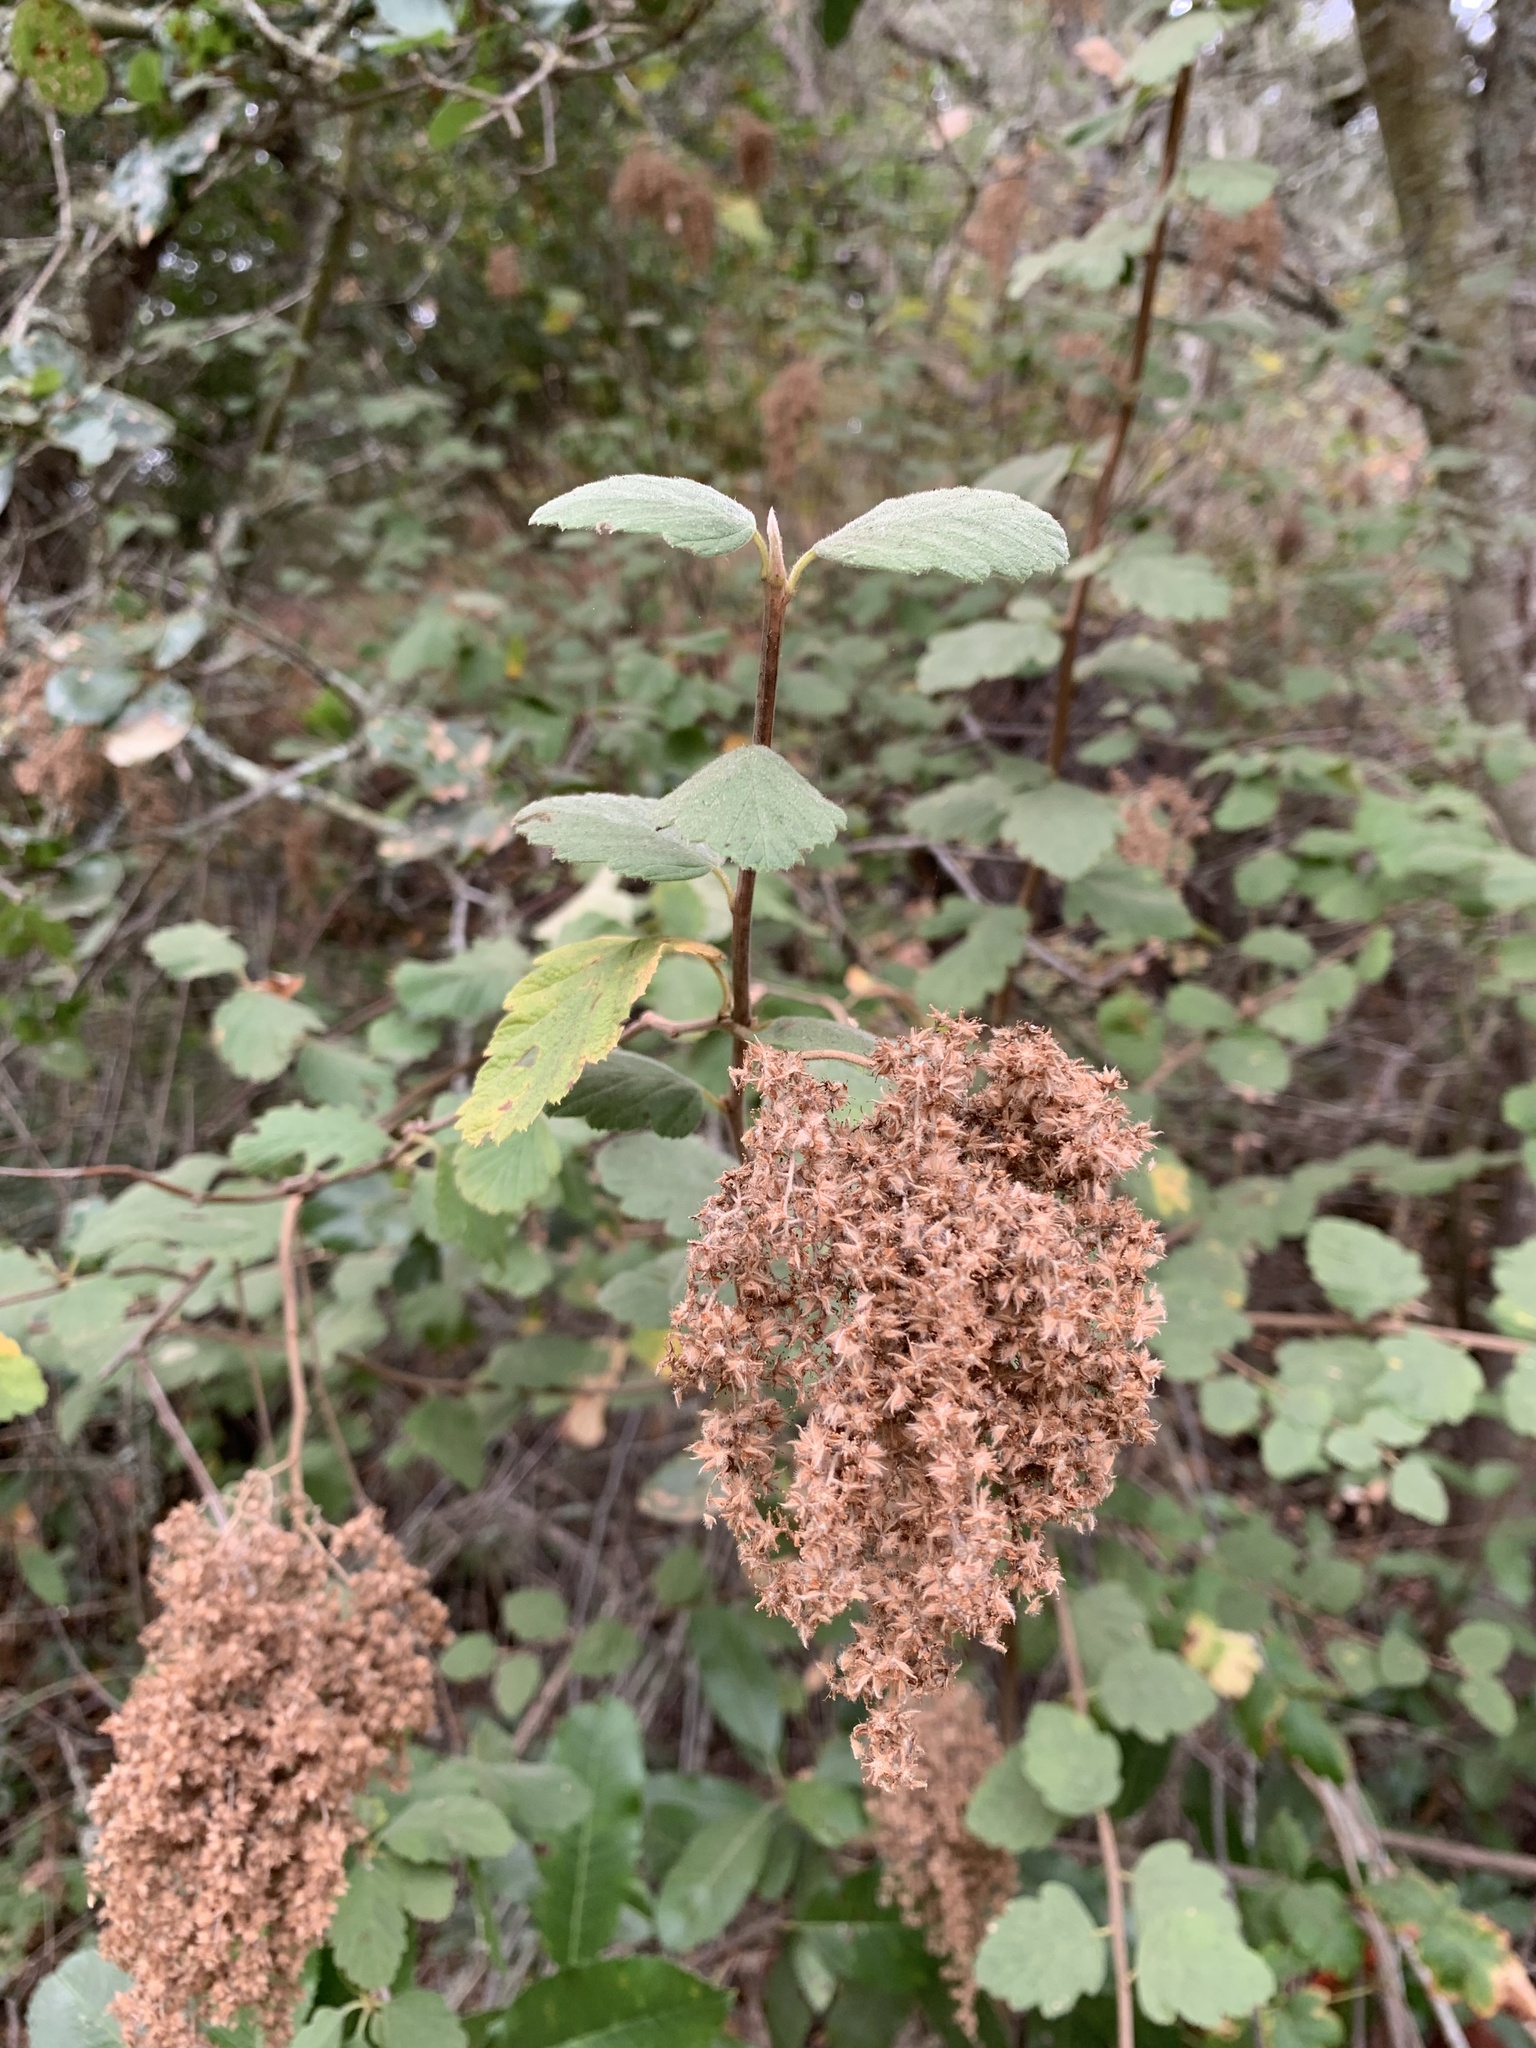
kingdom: Plantae
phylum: Tracheophyta
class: Magnoliopsida
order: Rosales
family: Rosaceae
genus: Holodiscus
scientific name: Holodiscus discolor
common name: Oceanspray
